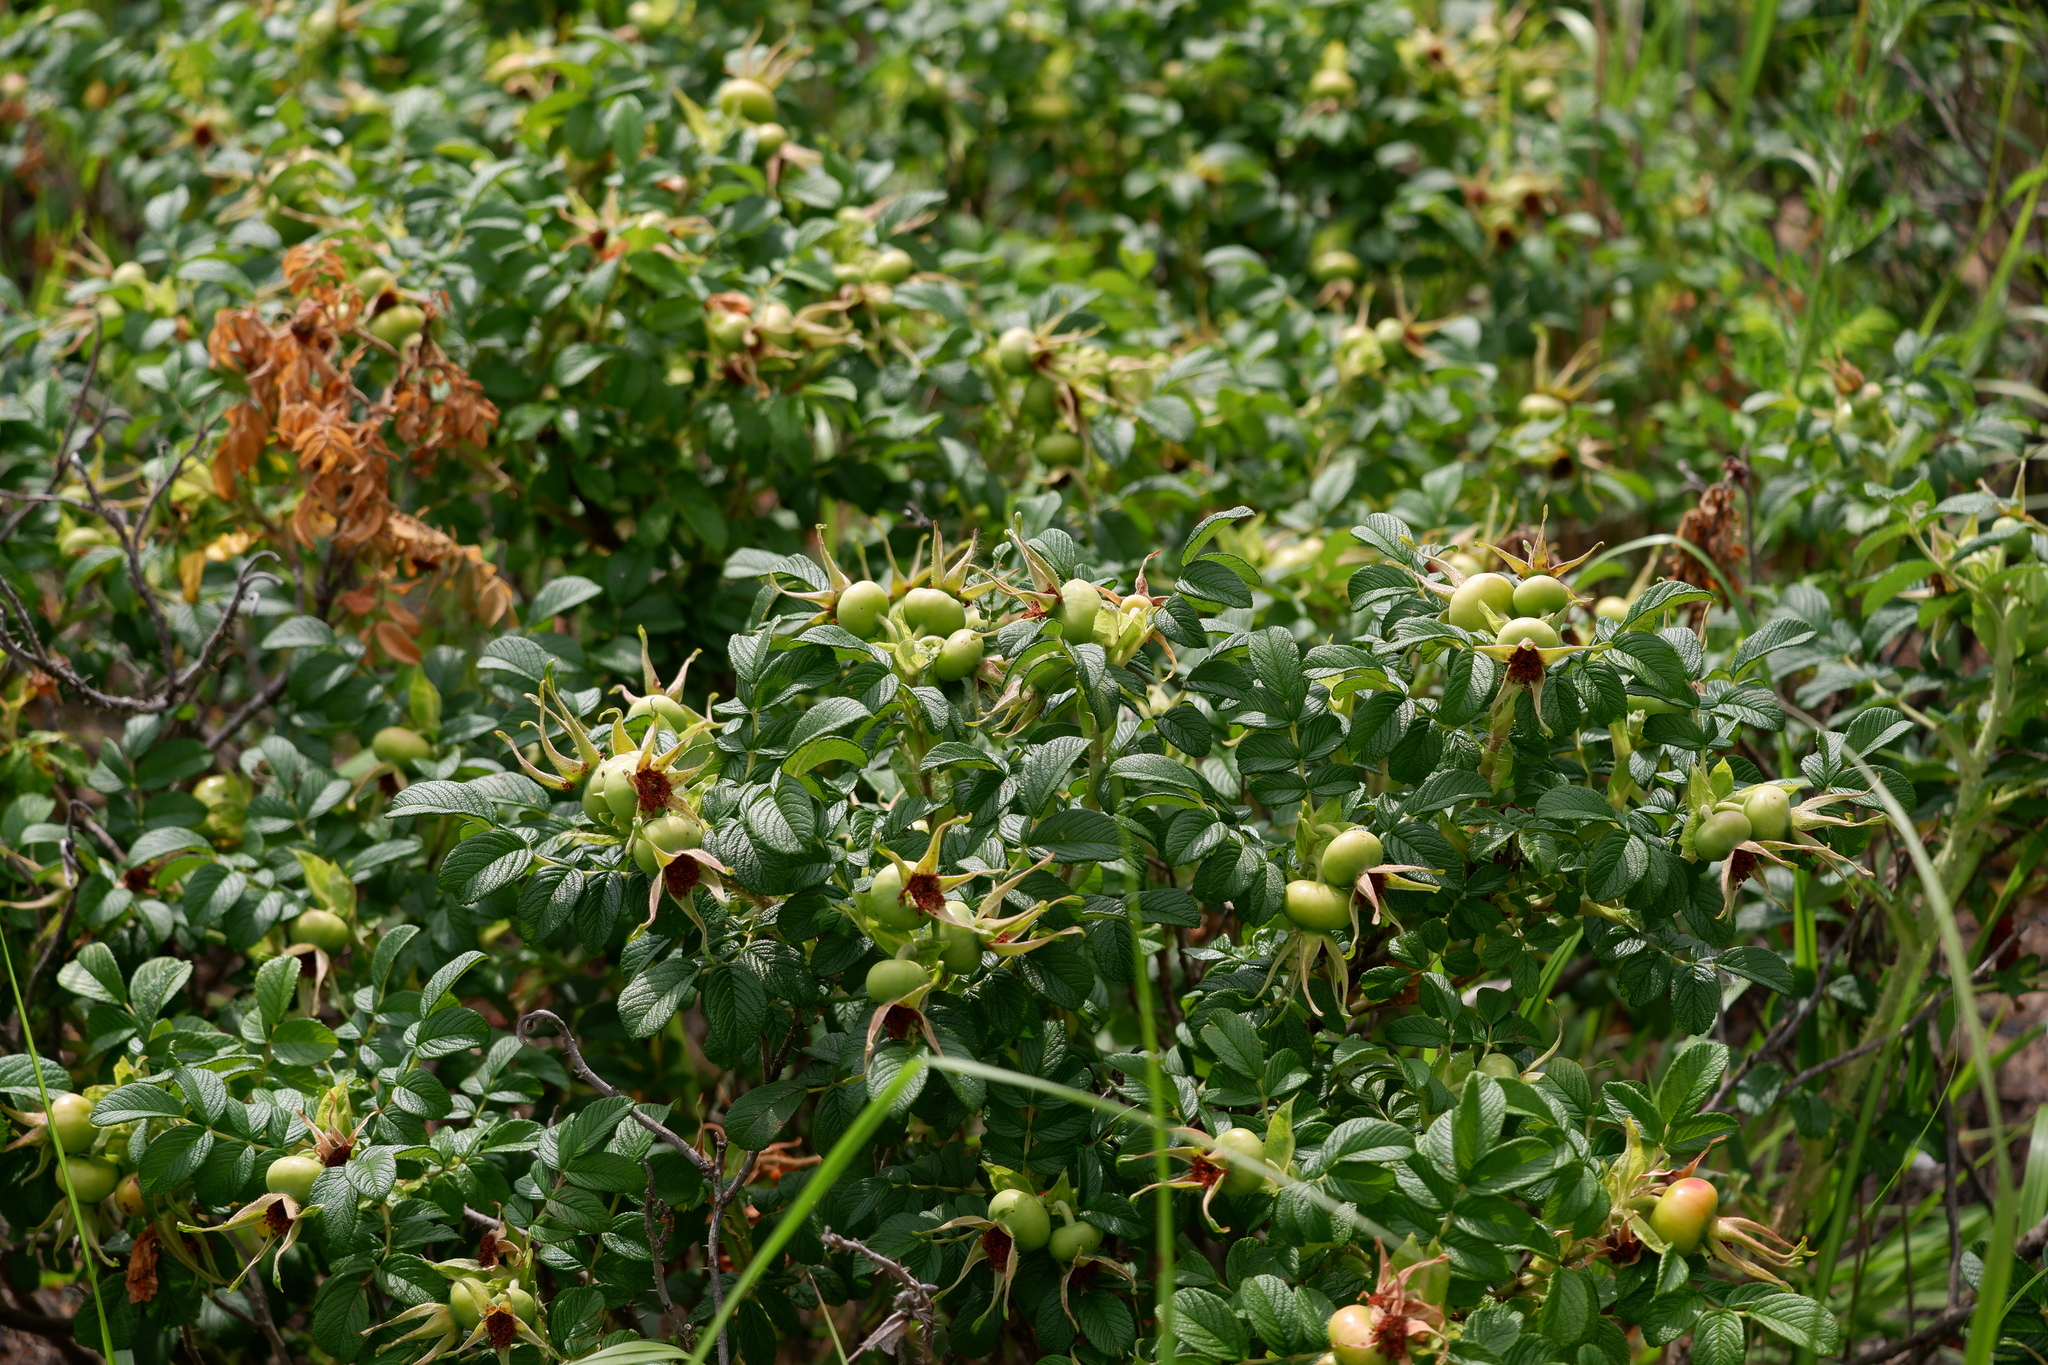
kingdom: Plantae
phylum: Tracheophyta
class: Magnoliopsida
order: Rosales
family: Rosaceae
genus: Rosa
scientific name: Rosa rugosa
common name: Japanese rose
